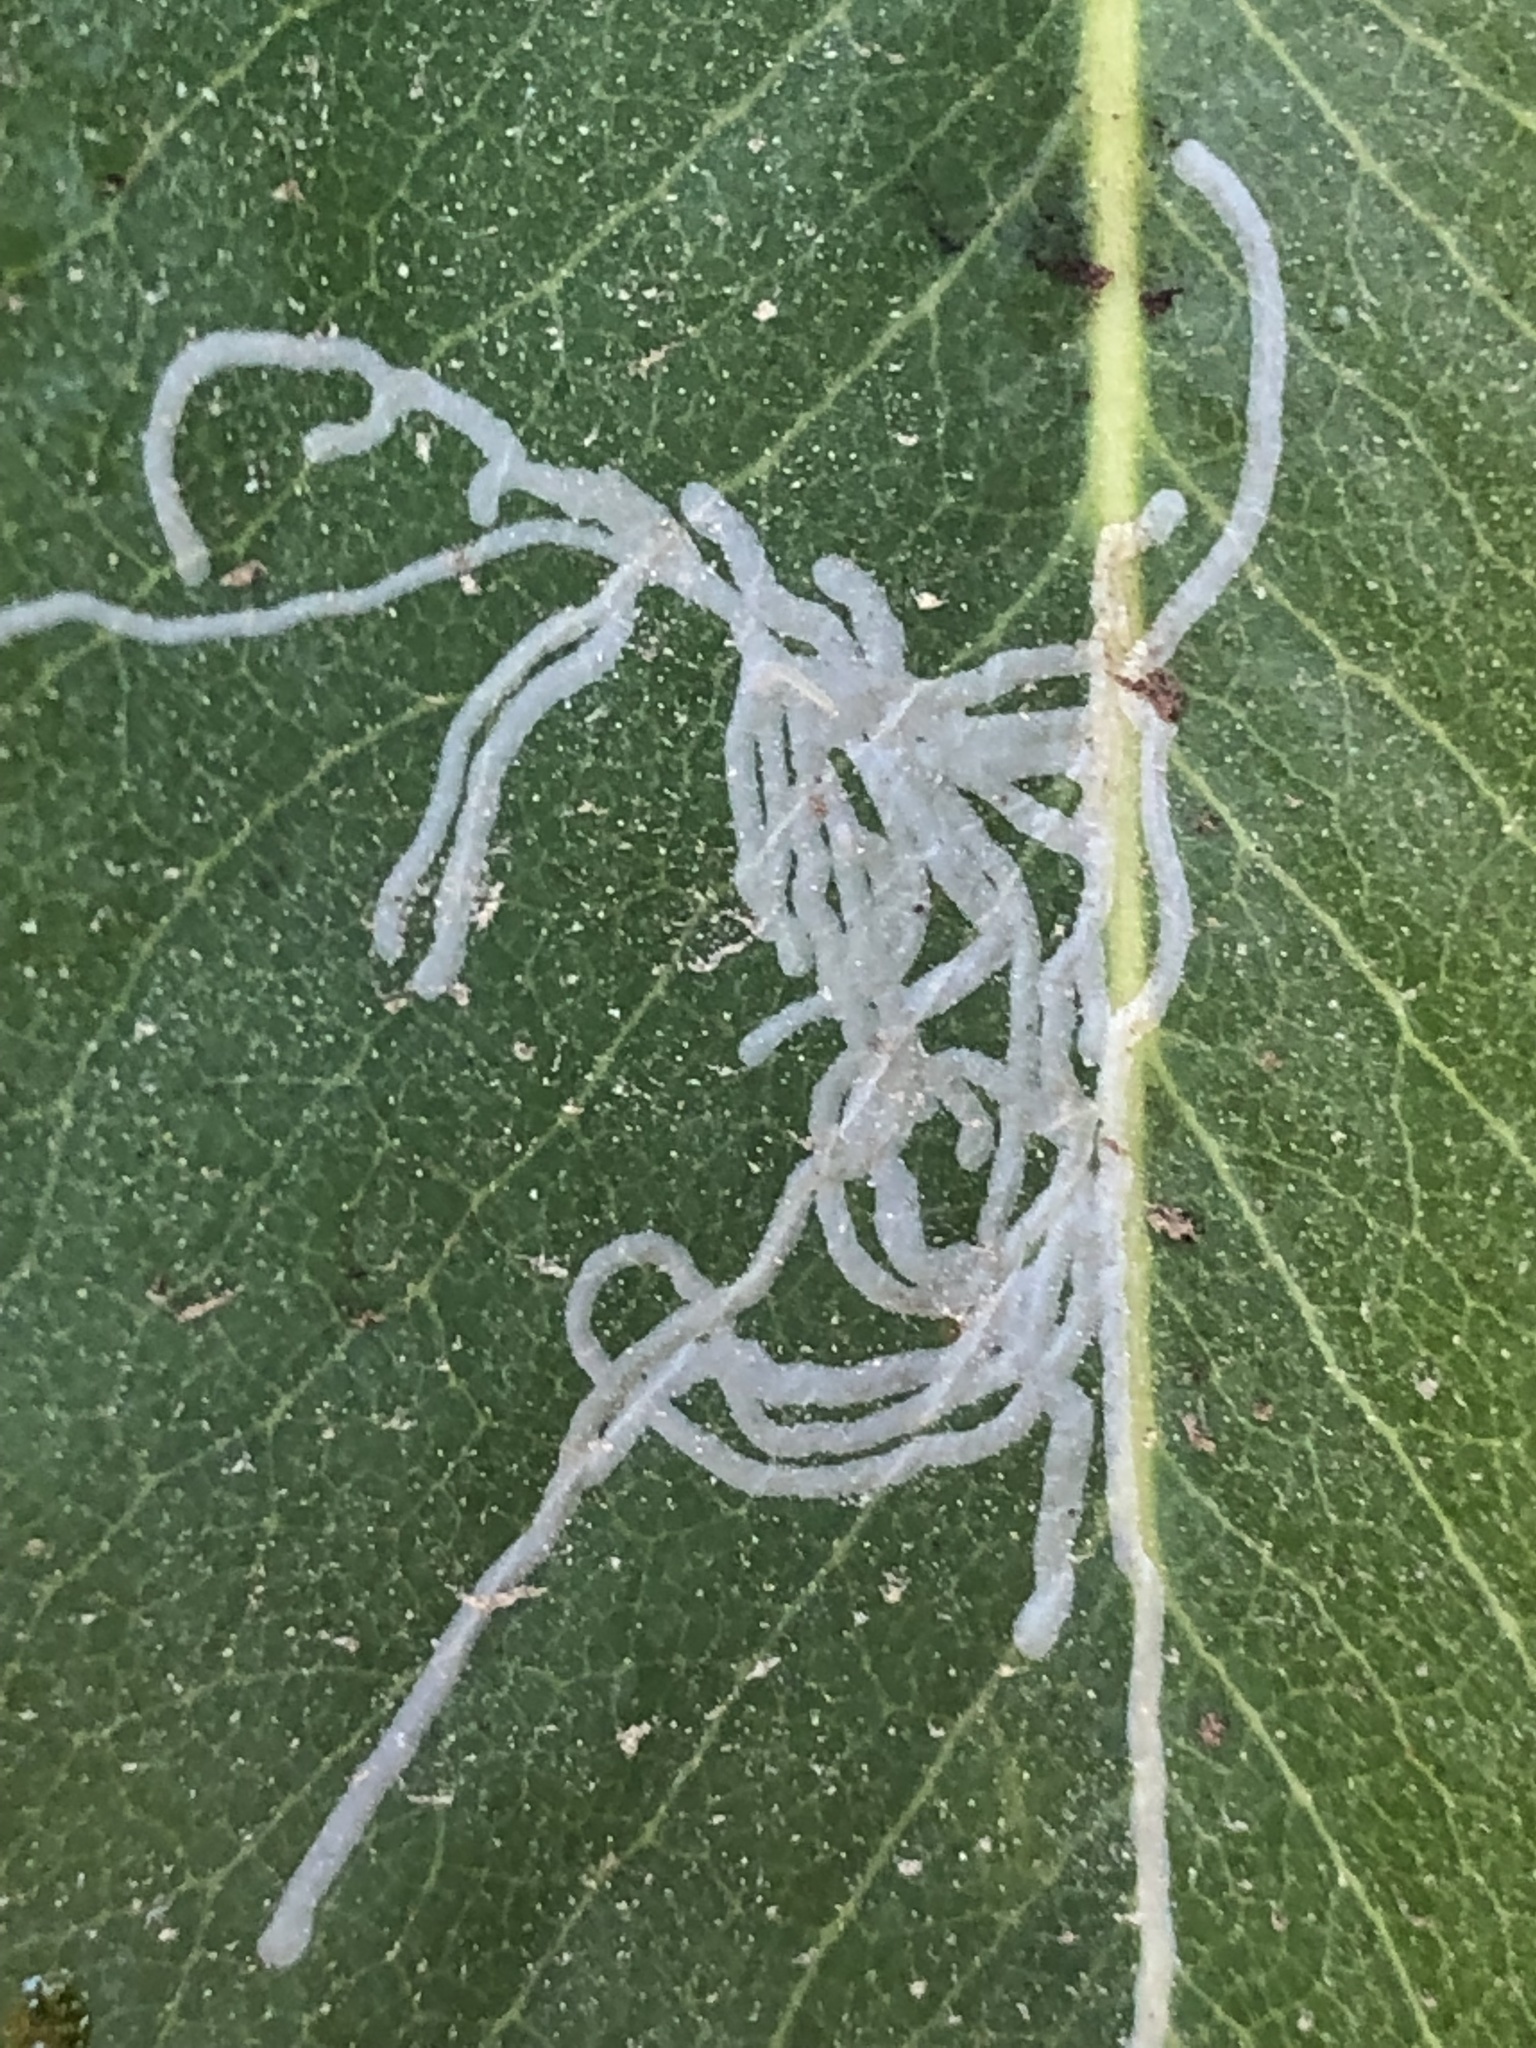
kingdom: Animalia
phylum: Arthropoda
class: Insecta
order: Lepidoptera
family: Gracillariidae
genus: Marmara
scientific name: Marmara arbutiella
